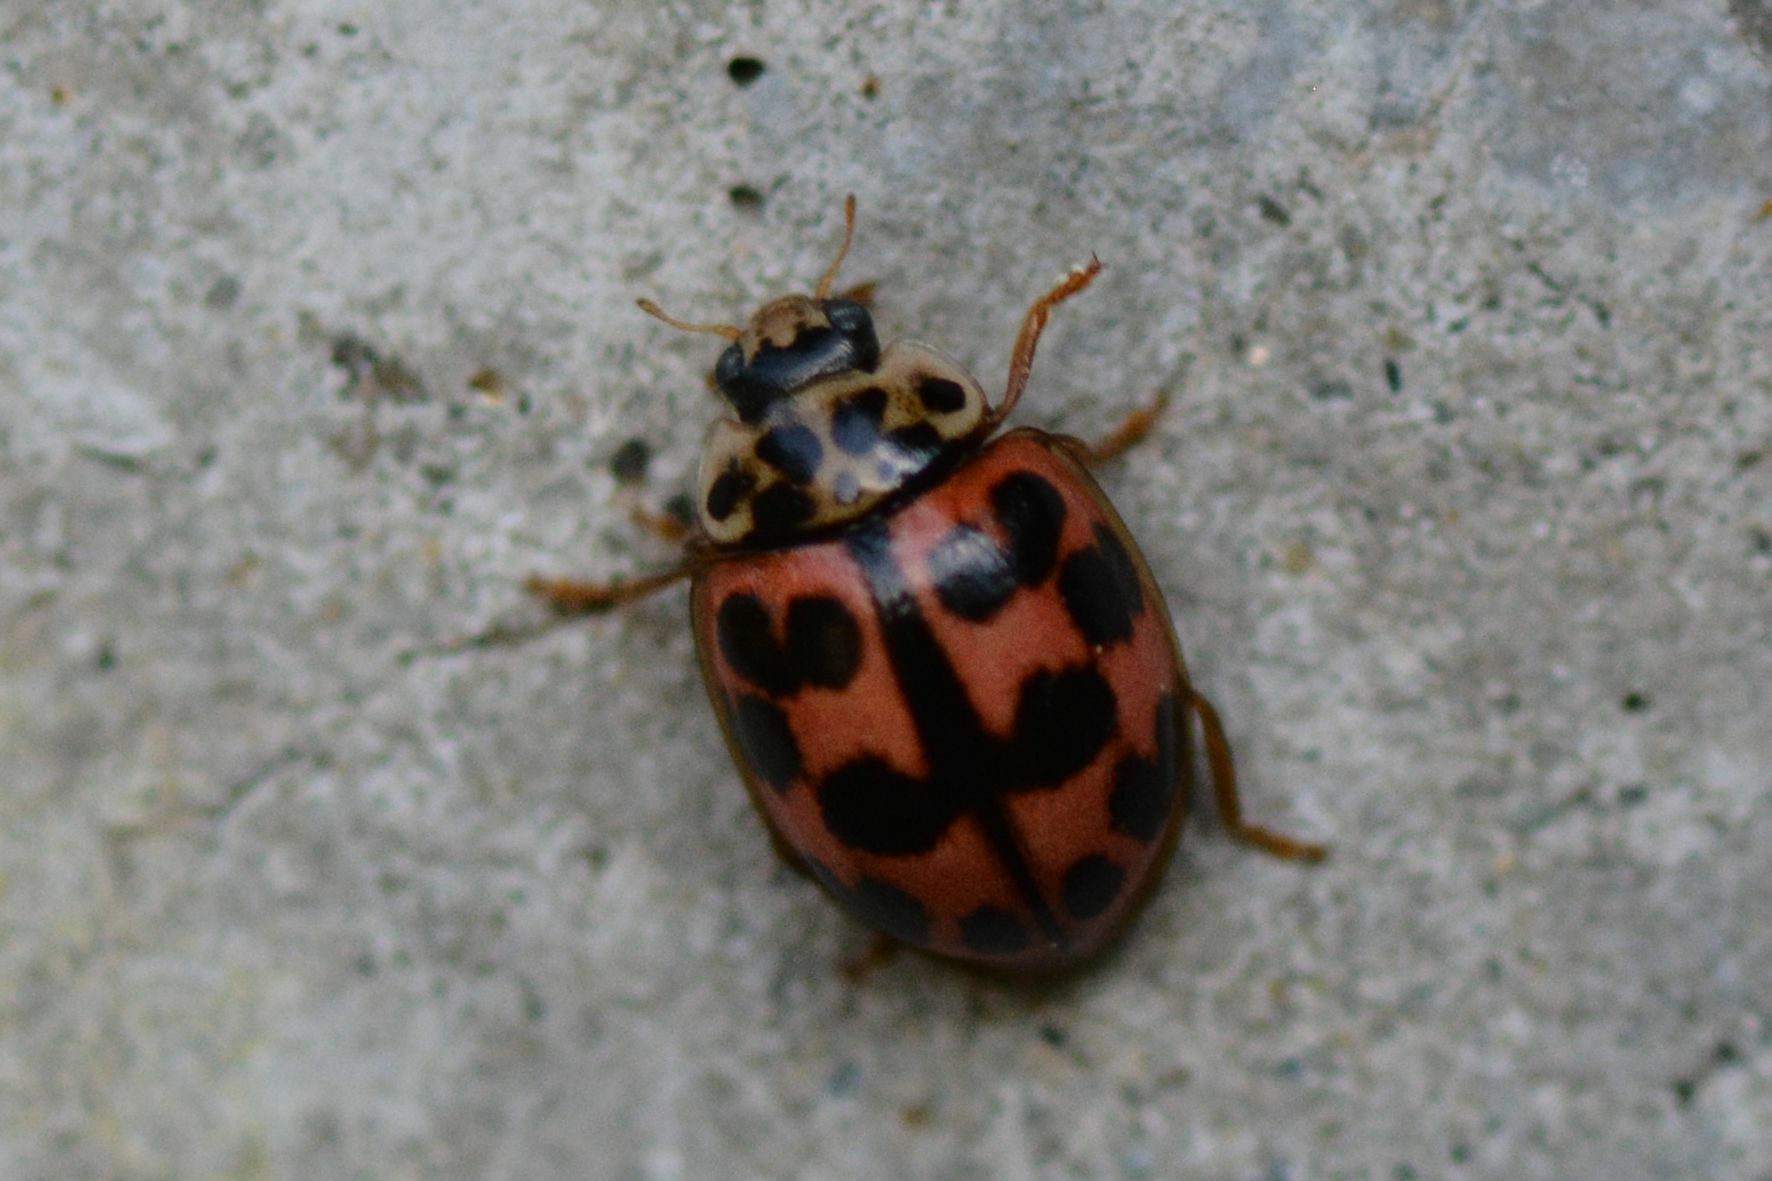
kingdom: Animalia
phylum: Arthropoda
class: Insecta
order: Coleoptera
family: Coccinellidae
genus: Oenopia
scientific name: Oenopia conglobata
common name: Ladybird beetle
